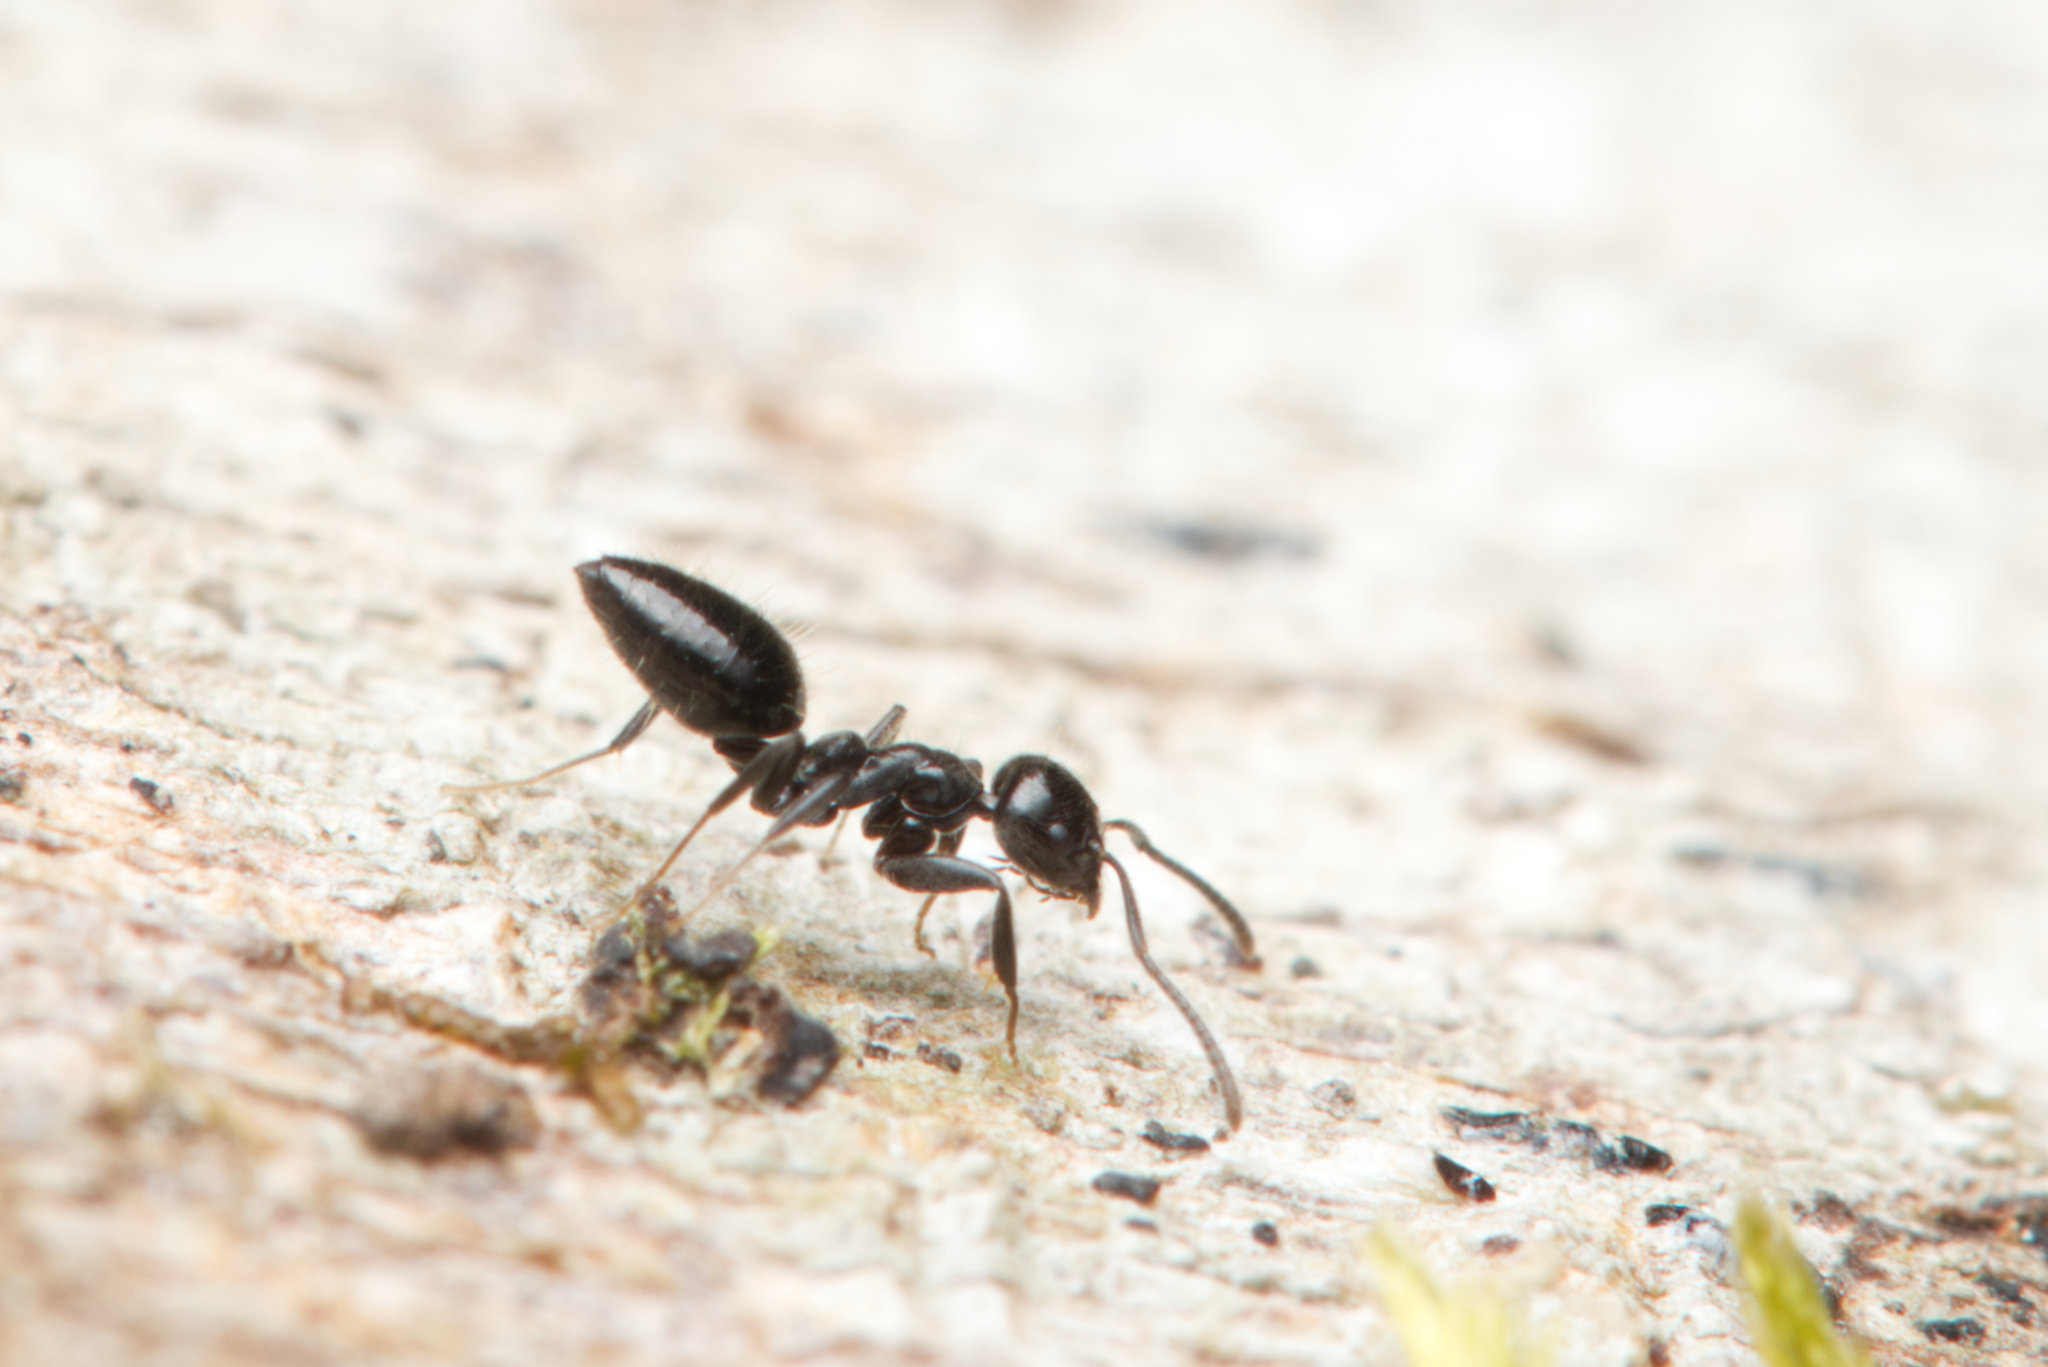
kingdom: Animalia
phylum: Arthropoda
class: Insecta
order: Hymenoptera
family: Formicidae
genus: Technomyrmex
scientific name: Technomyrmex sophiae
